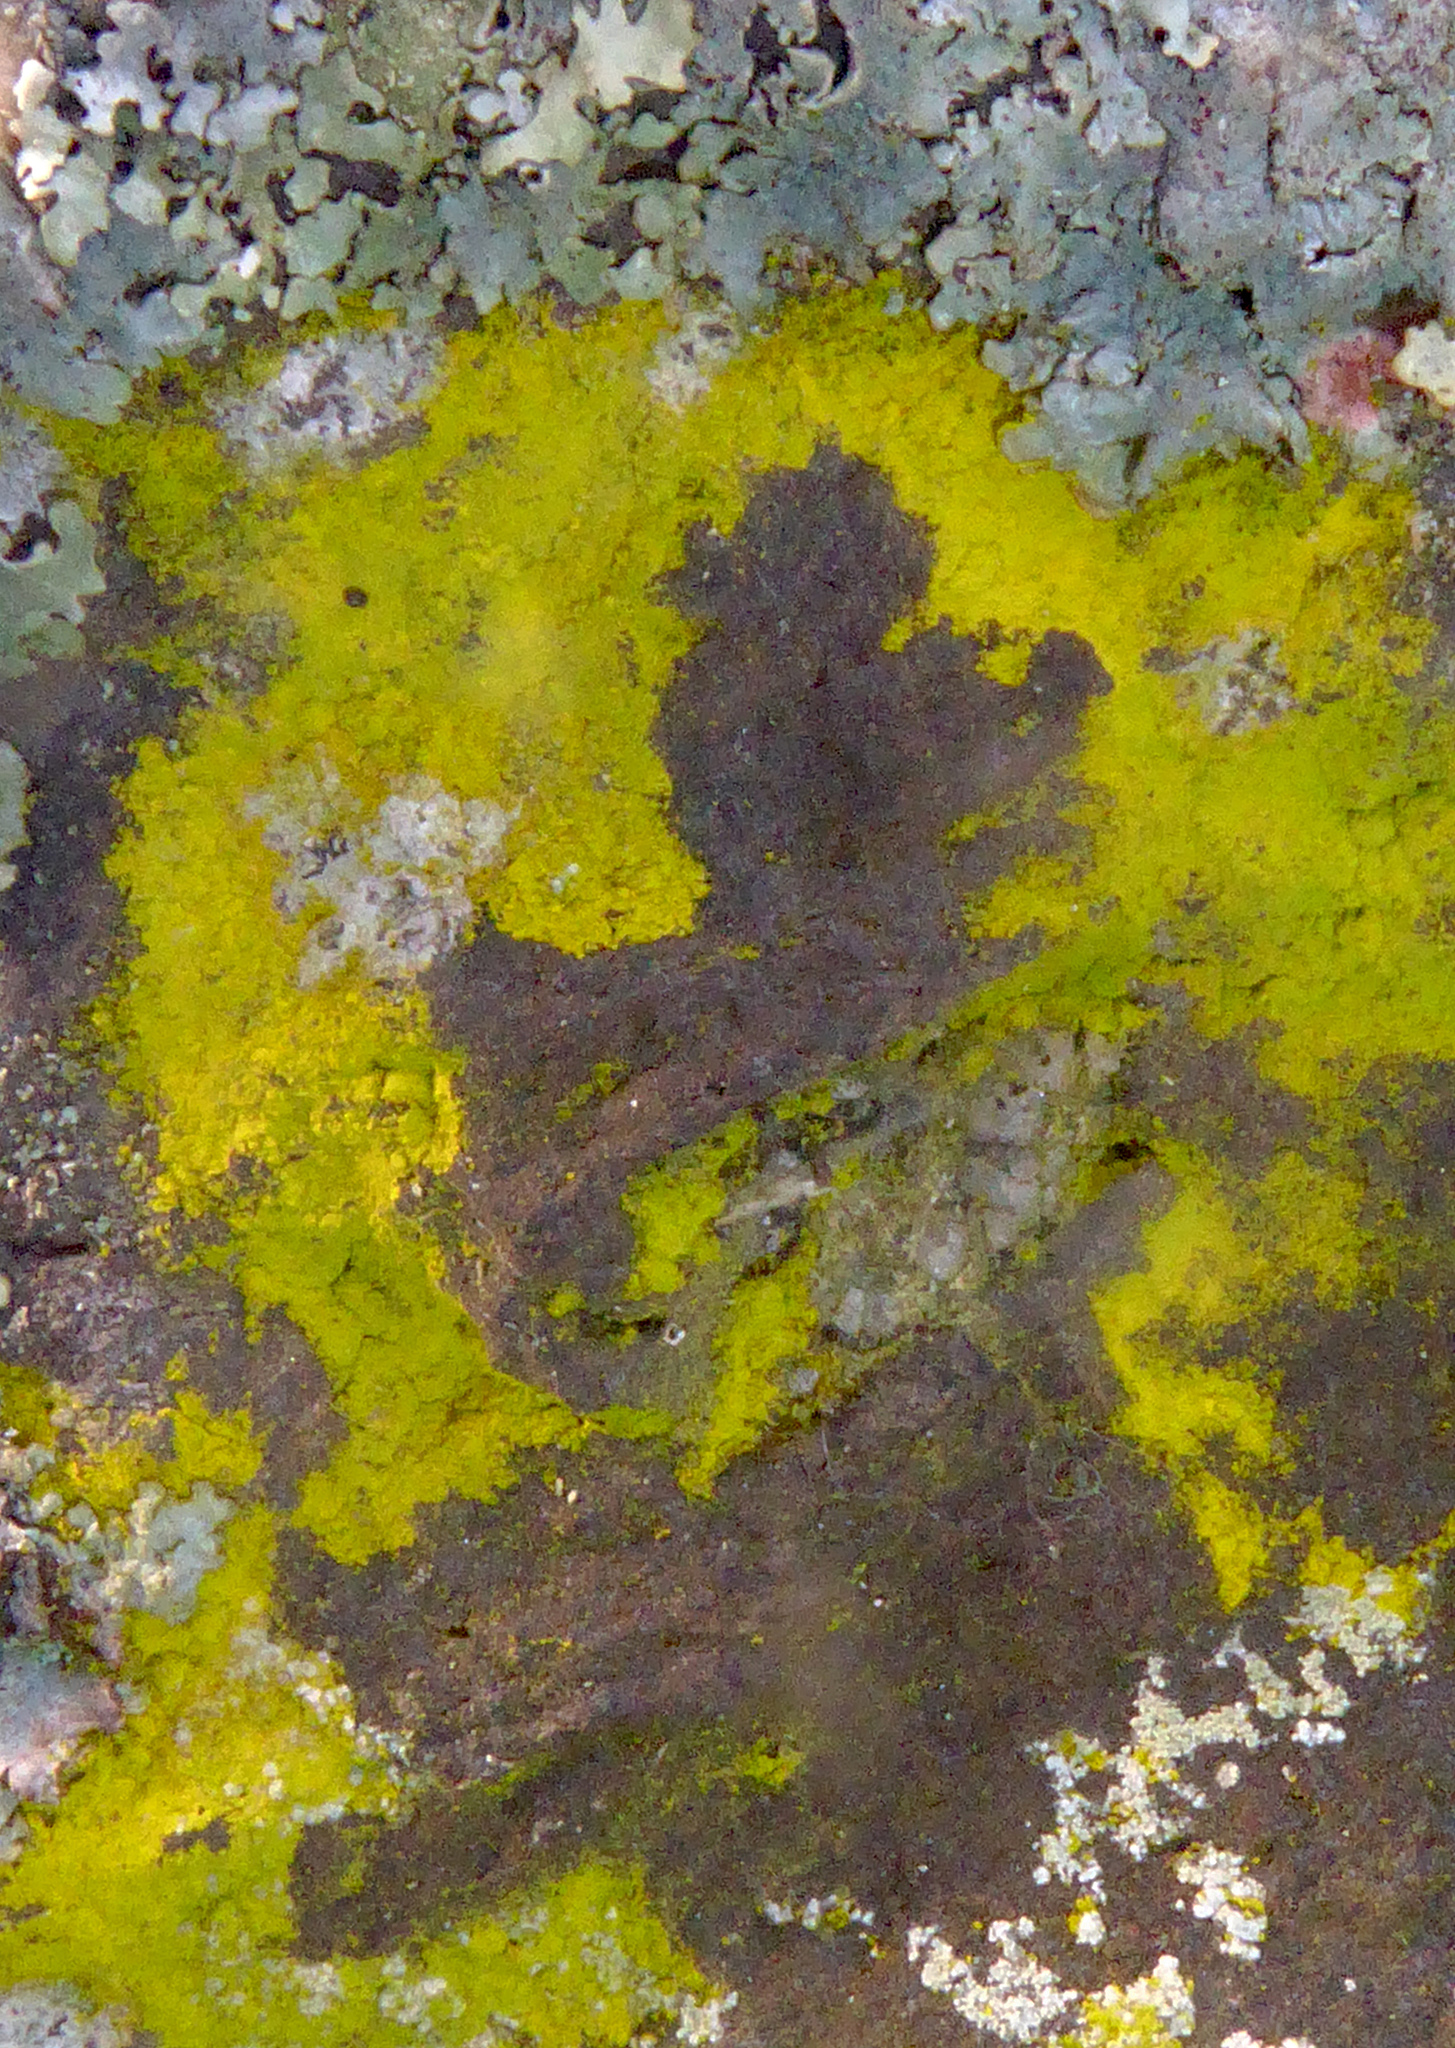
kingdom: Fungi
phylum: Ascomycota
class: Arthoniomycetes
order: Arthoniales
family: Chrysotrichaceae
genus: Chrysothrix
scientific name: Chrysothrix xanthina
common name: Common gold-dust
